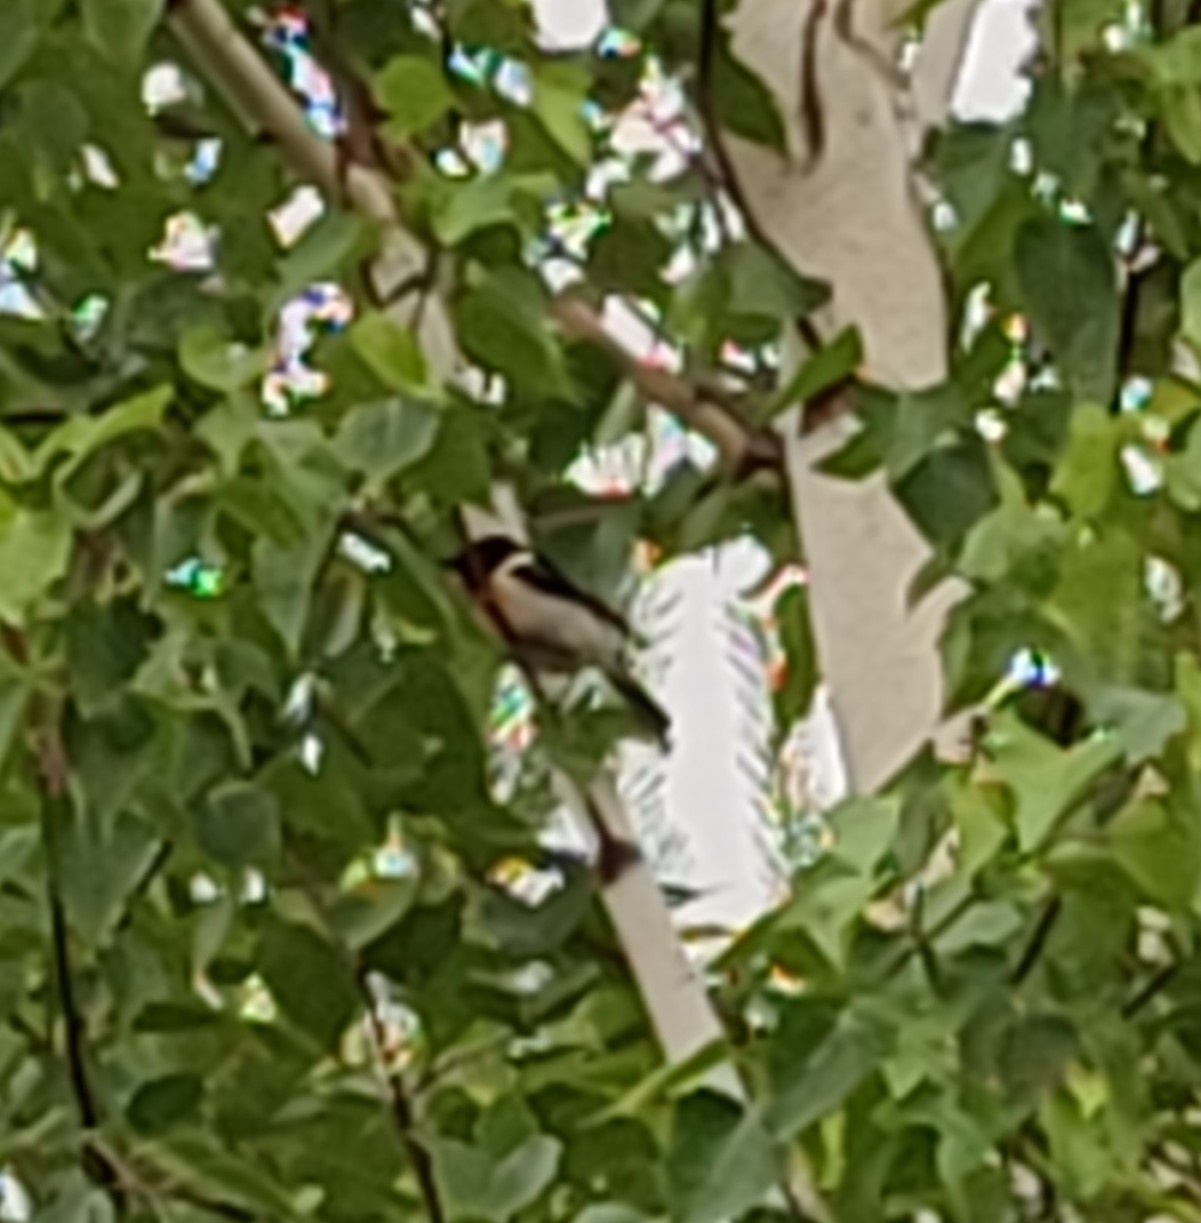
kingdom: Animalia
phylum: Chordata
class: Aves
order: Passeriformes
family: Muscicapidae
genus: Saxicola
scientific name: Saxicola maurus
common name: Siberian stonechat
